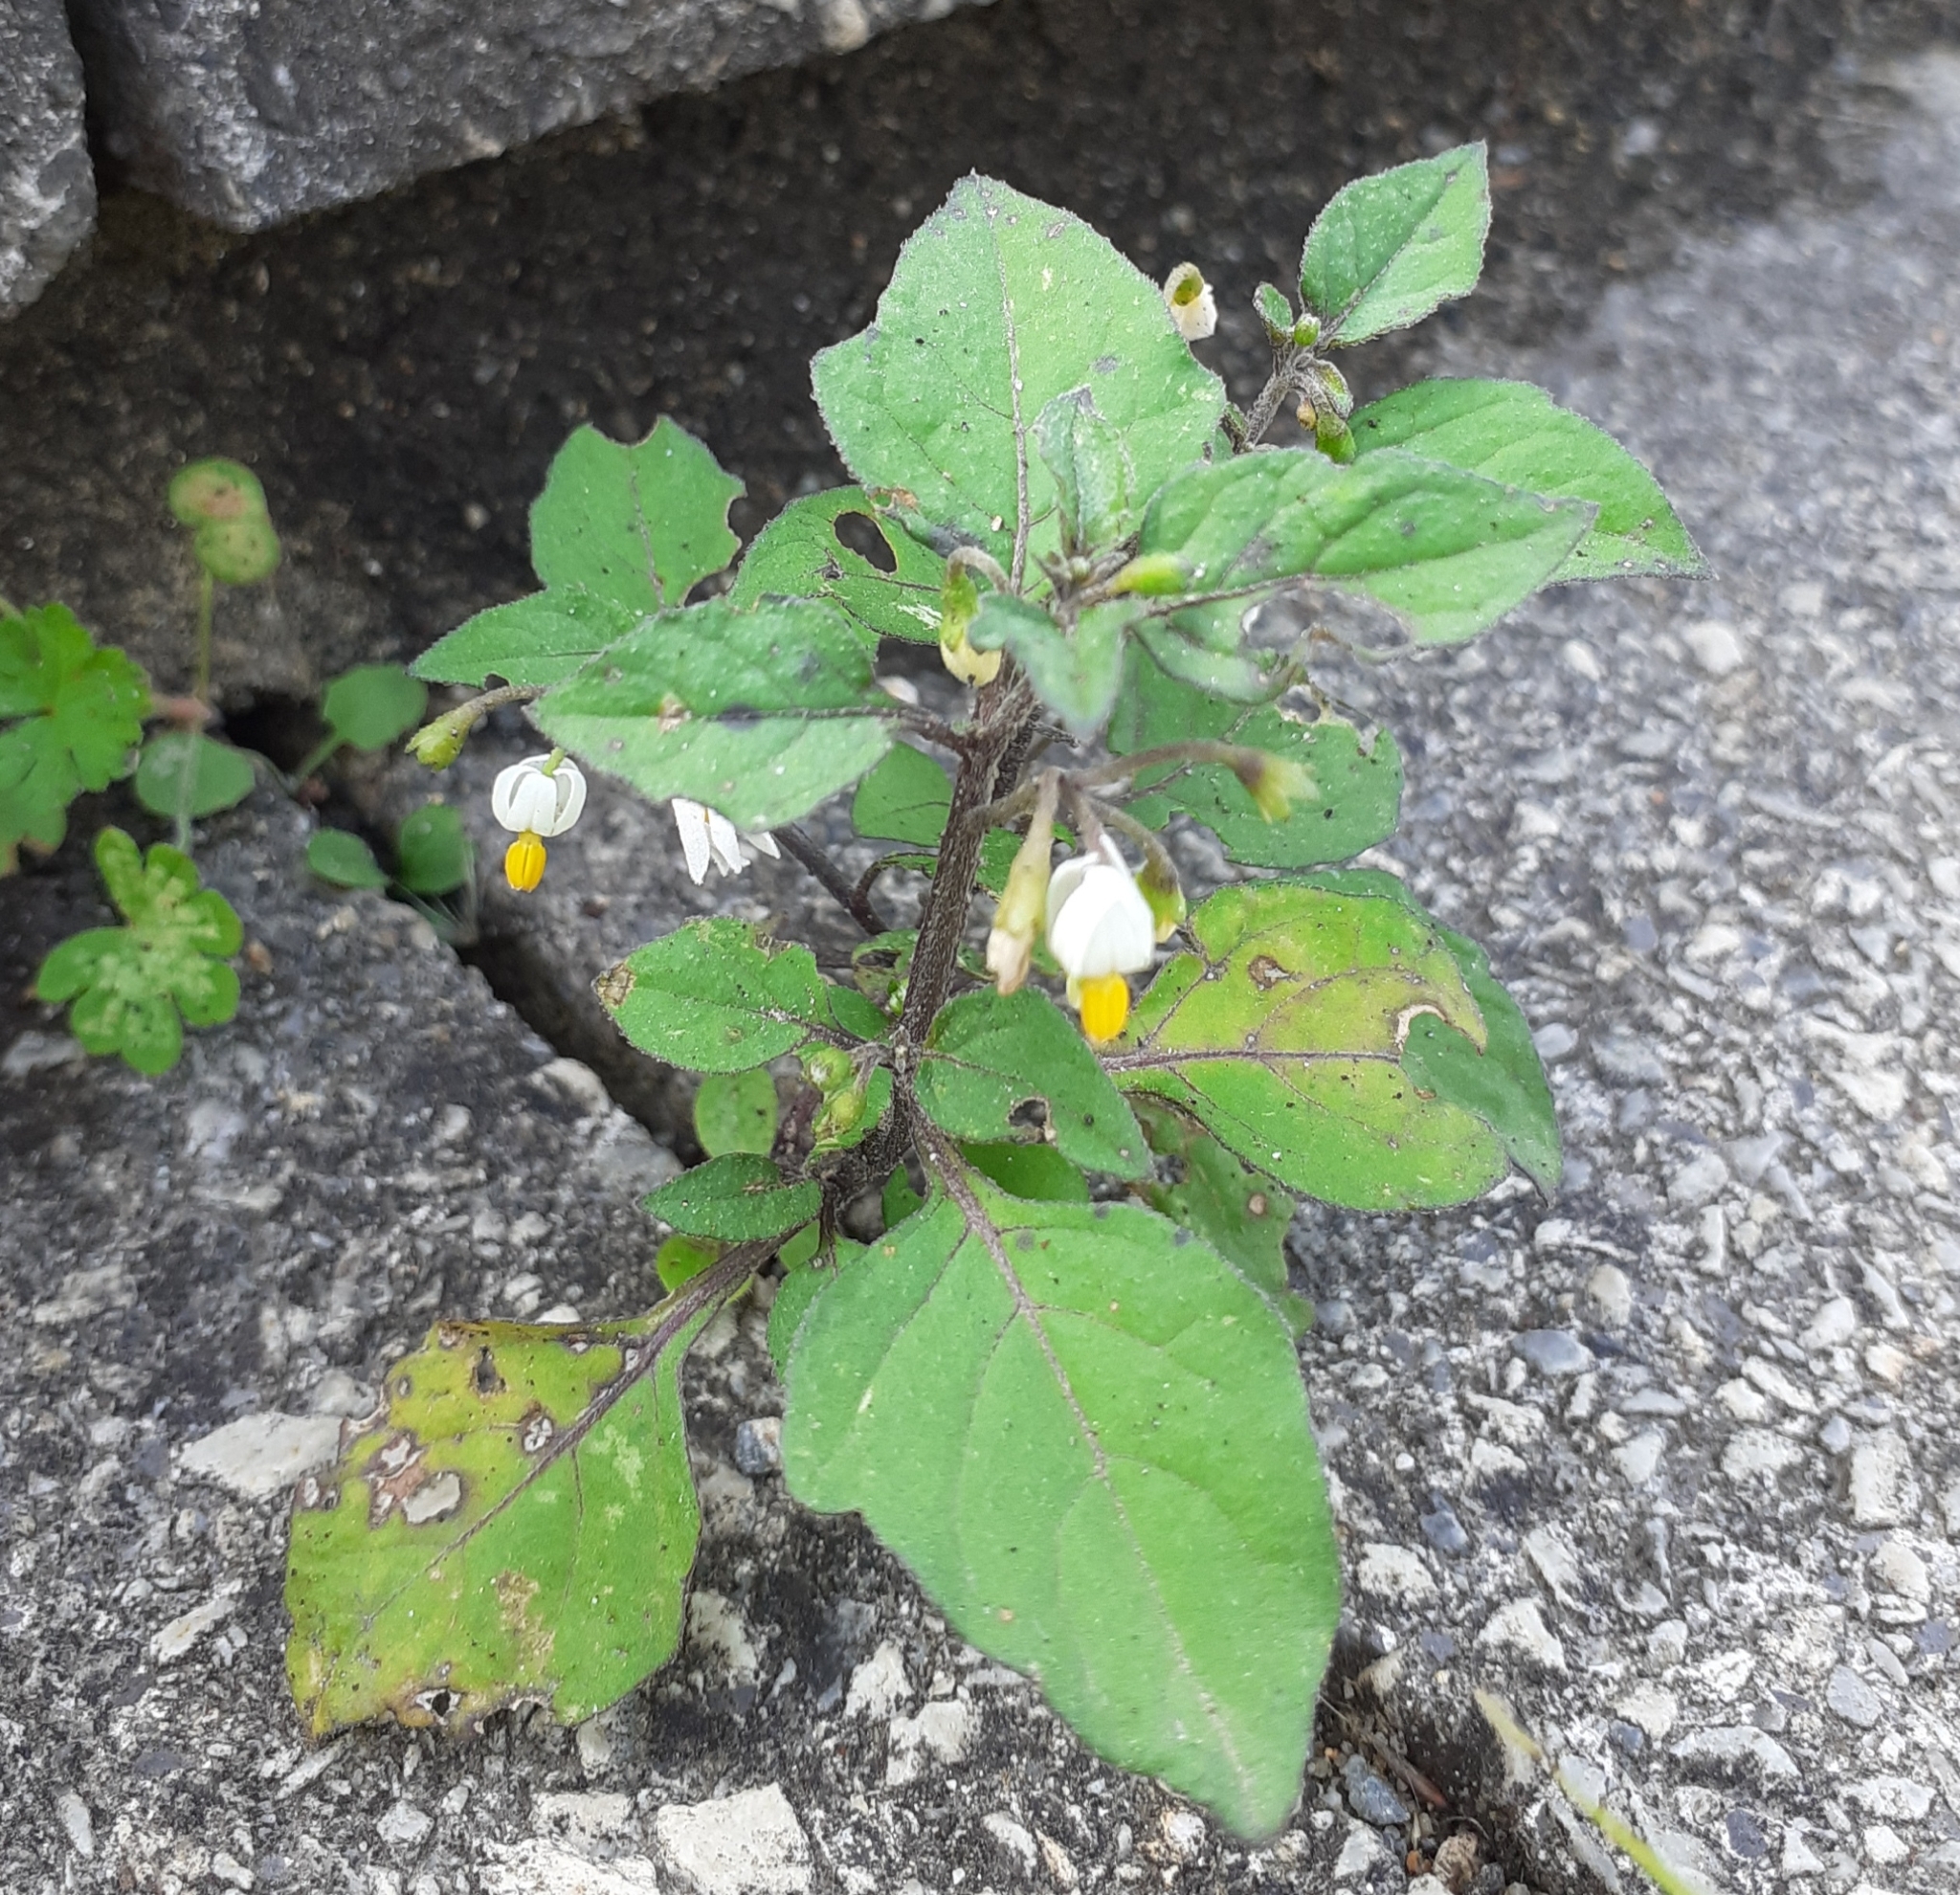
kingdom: Plantae
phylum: Tracheophyta
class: Magnoliopsida
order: Solanales
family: Solanaceae
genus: Solanum
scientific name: Solanum nigrum
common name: Black nightshade
